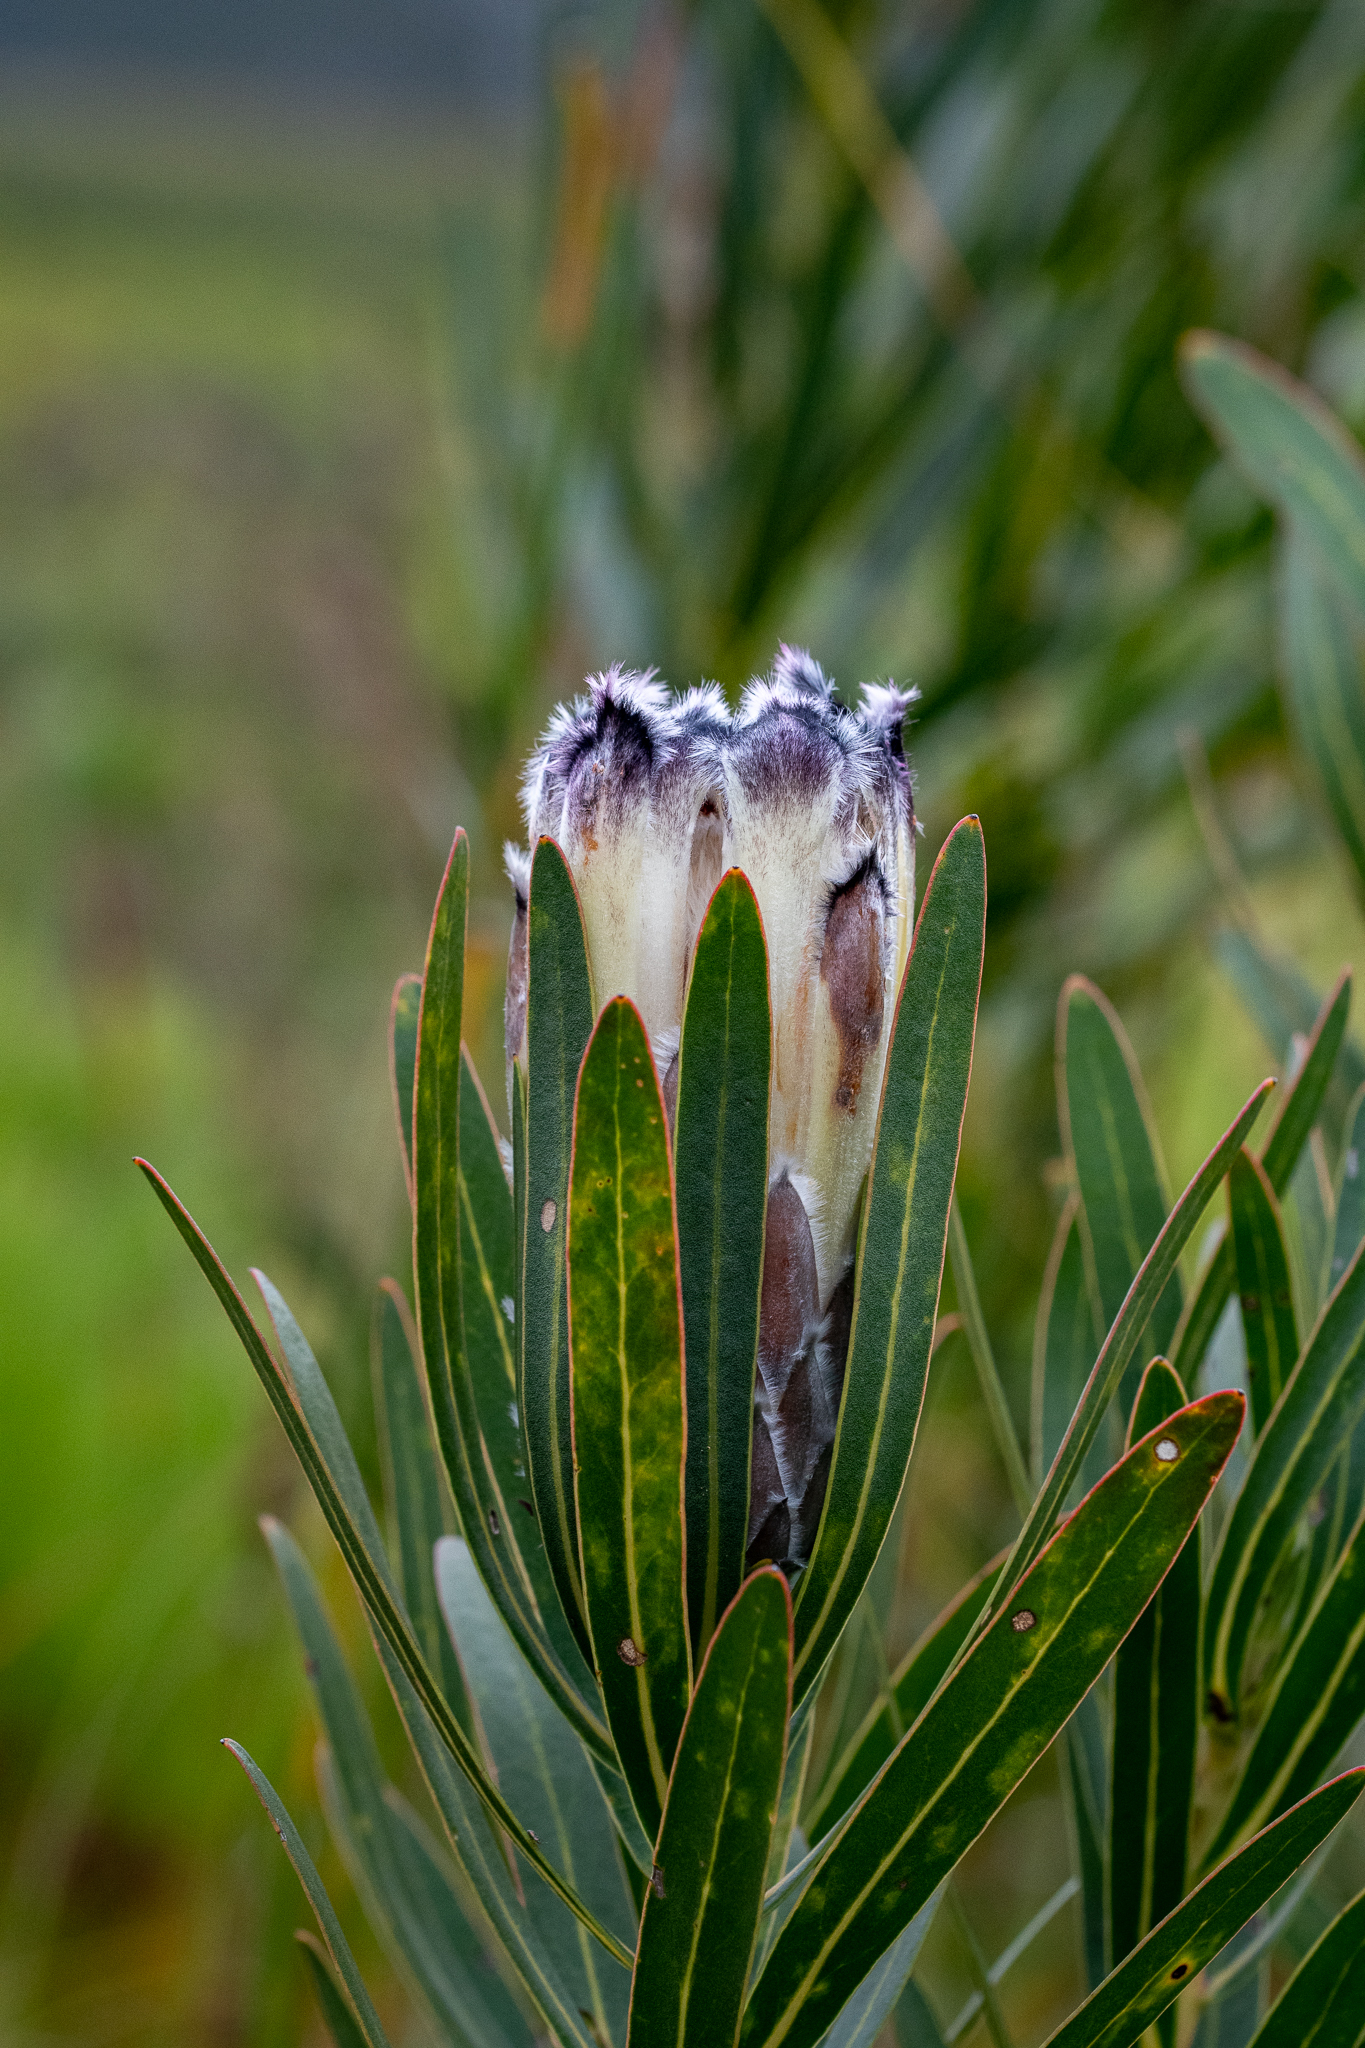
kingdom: Plantae
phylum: Tracheophyta
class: Magnoliopsida
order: Proteales
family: Proteaceae
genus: Protea
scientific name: Protea lepidocarpodendron
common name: Black-bearded protea
